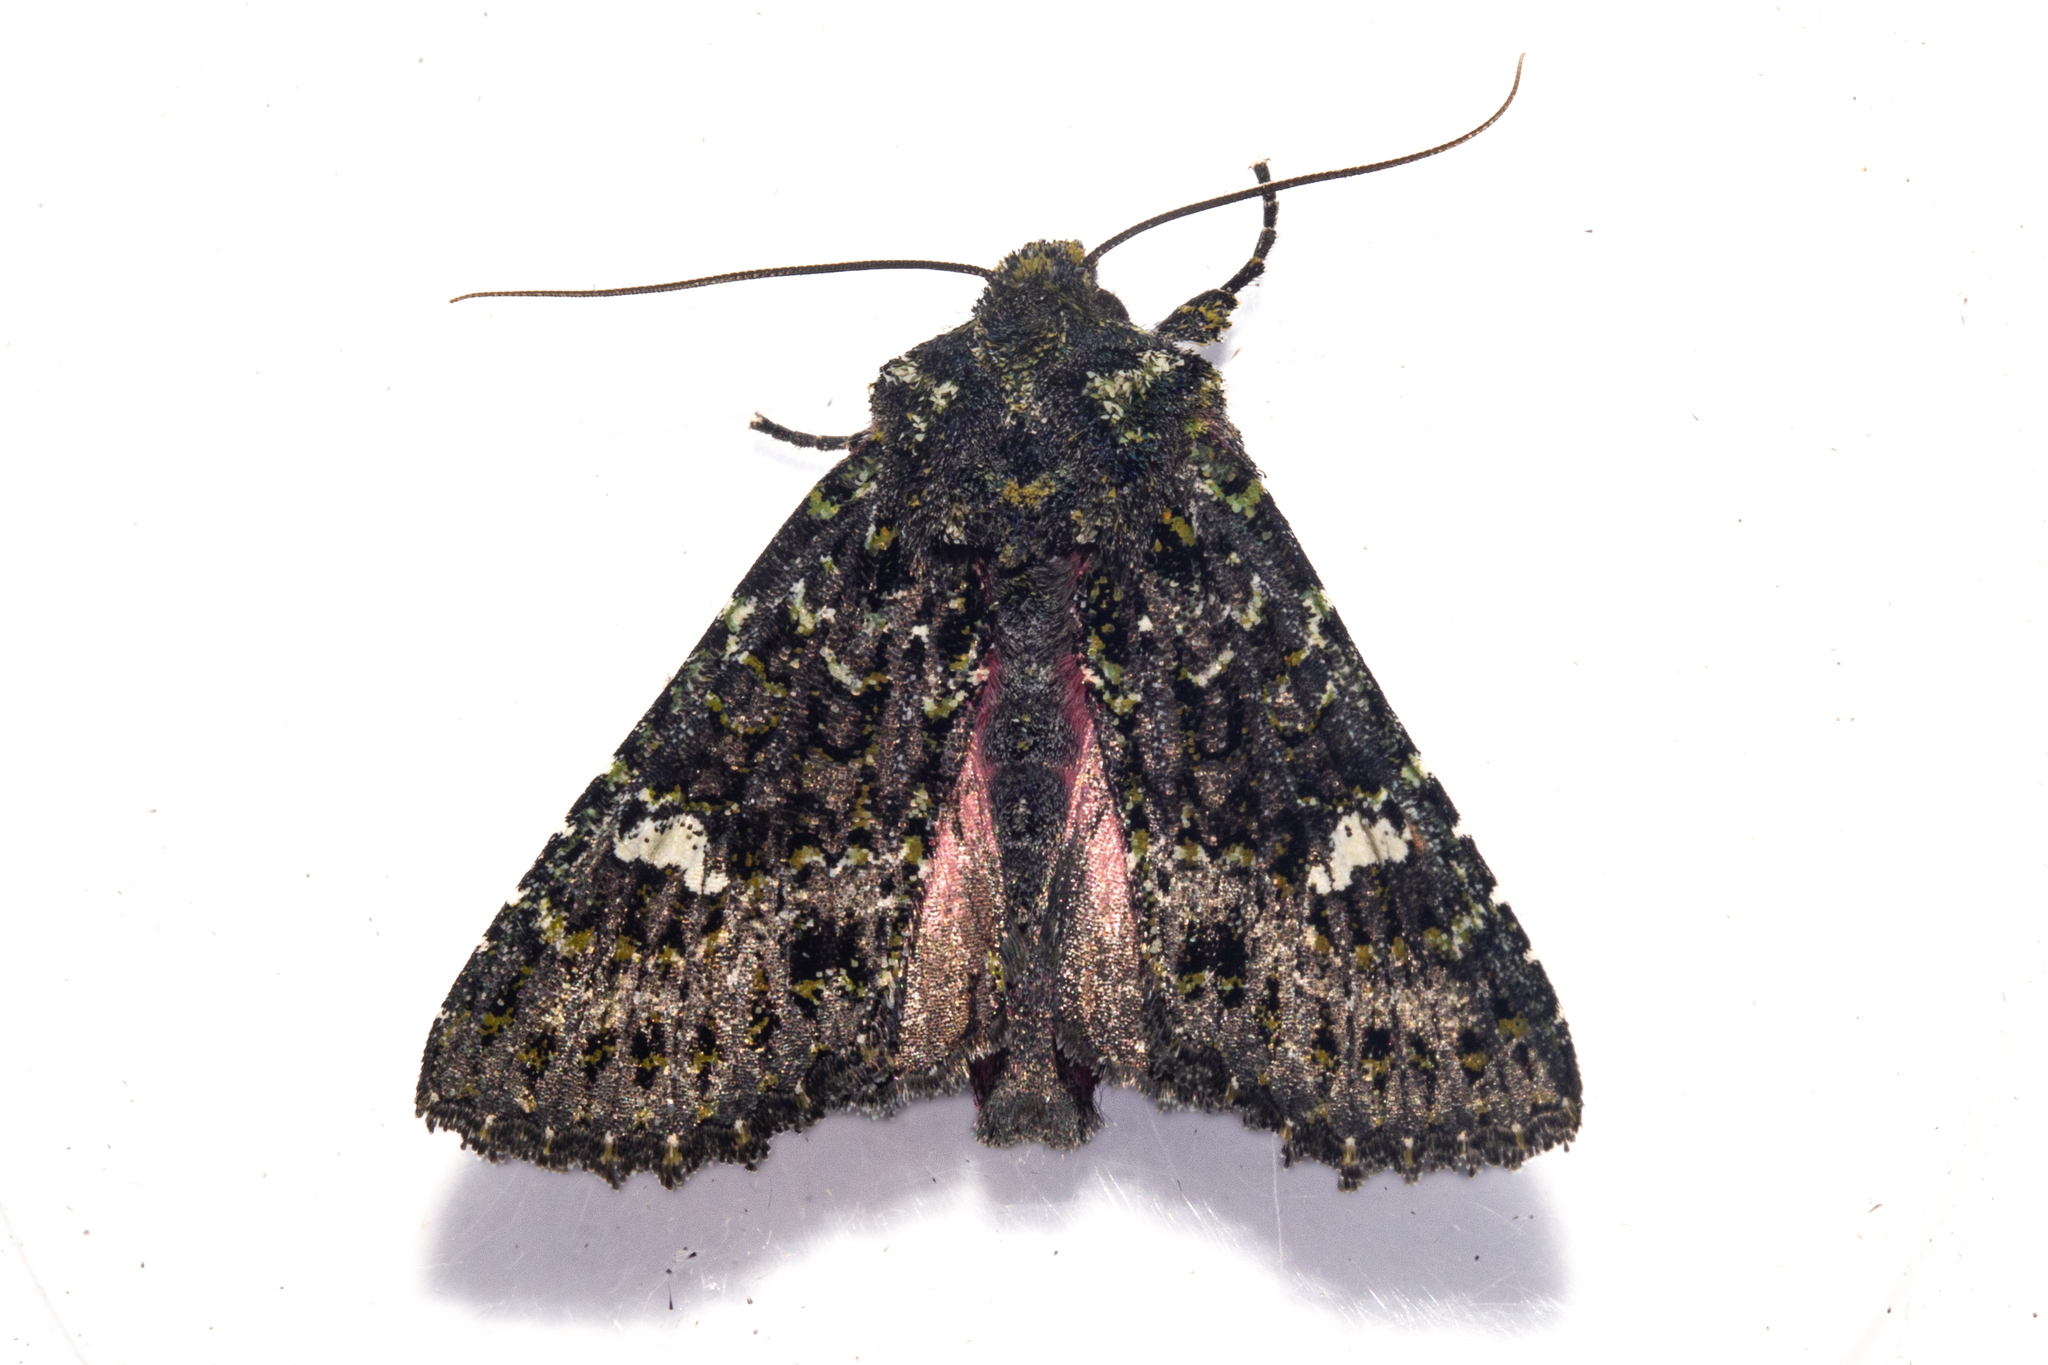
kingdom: Animalia
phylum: Arthropoda
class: Insecta
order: Lepidoptera
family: Noctuidae
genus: Meterana
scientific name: Meterana meyricci
